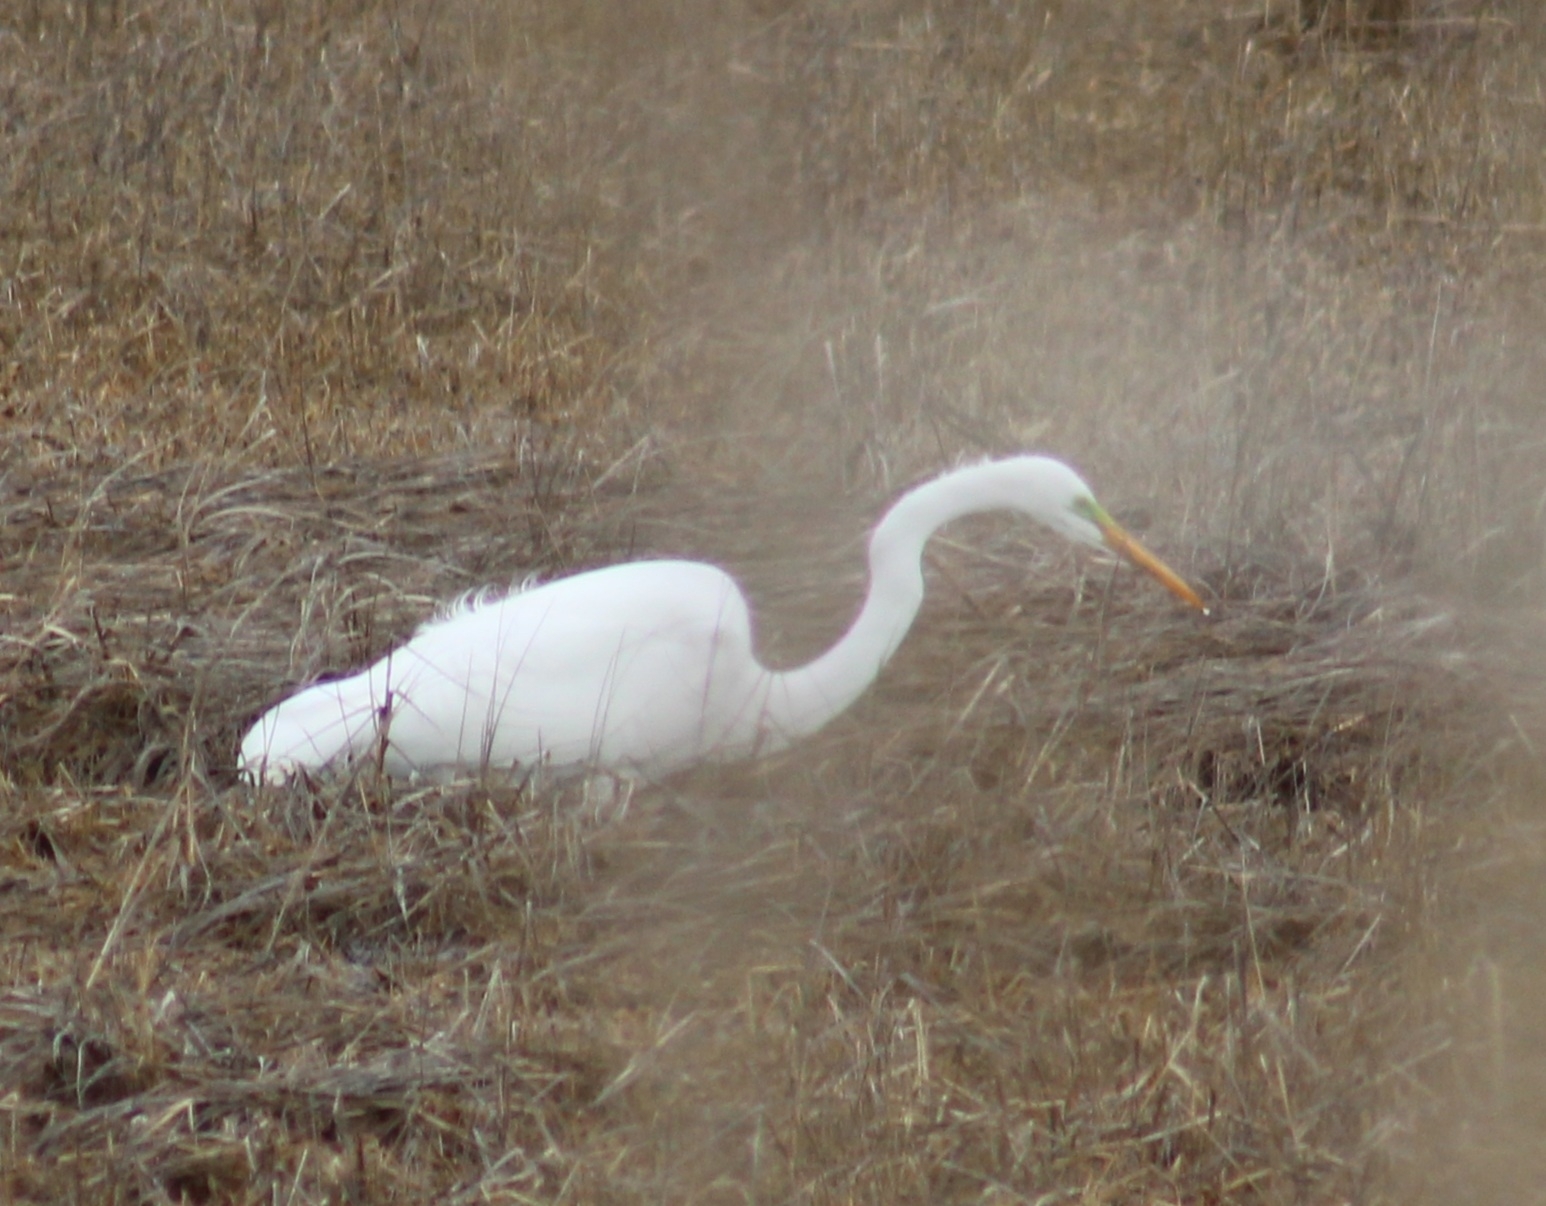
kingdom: Animalia
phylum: Chordata
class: Aves
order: Pelecaniformes
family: Ardeidae
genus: Ardea
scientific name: Ardea alba
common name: Great egret
